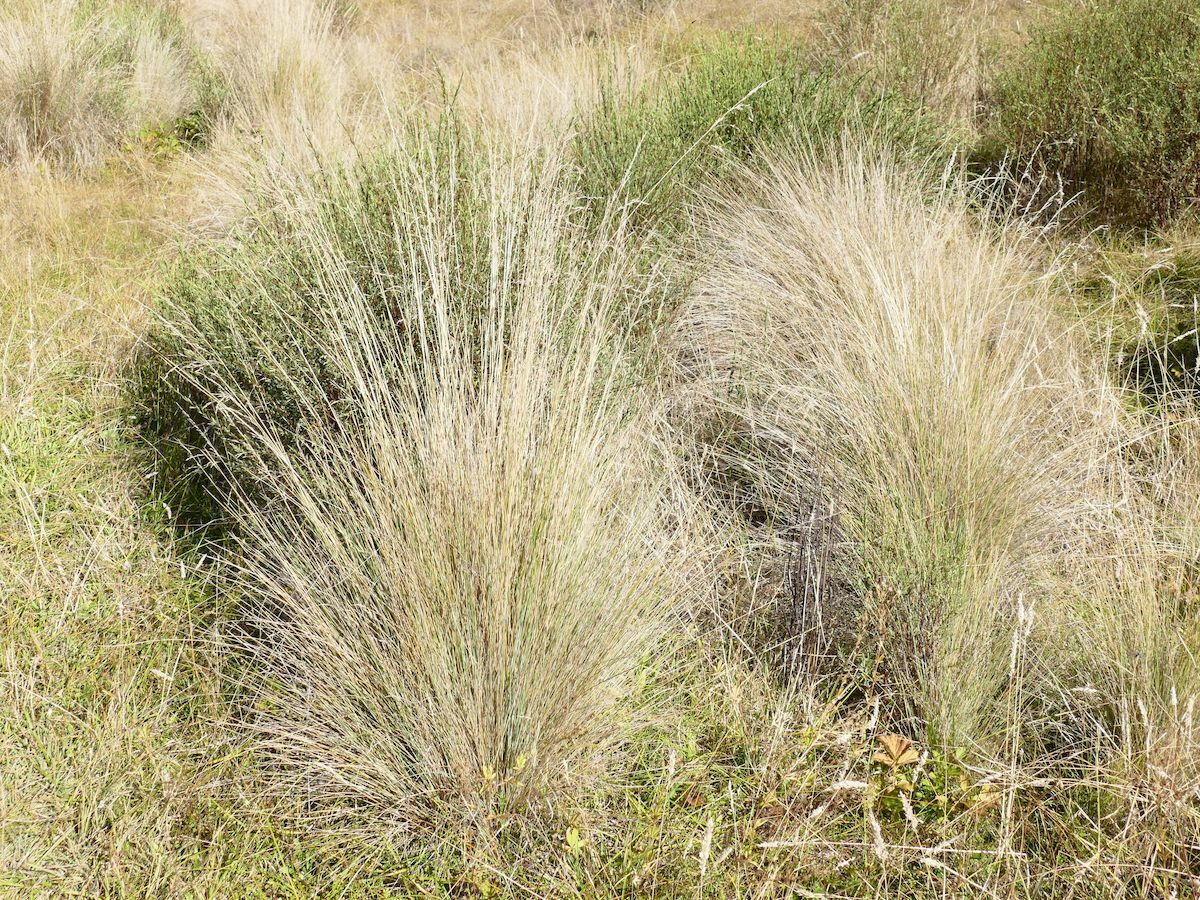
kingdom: Plantae
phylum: Tracheophyta
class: Liliopsida
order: Poales
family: Poaceae
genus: Poa
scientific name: Poa labillardierei
